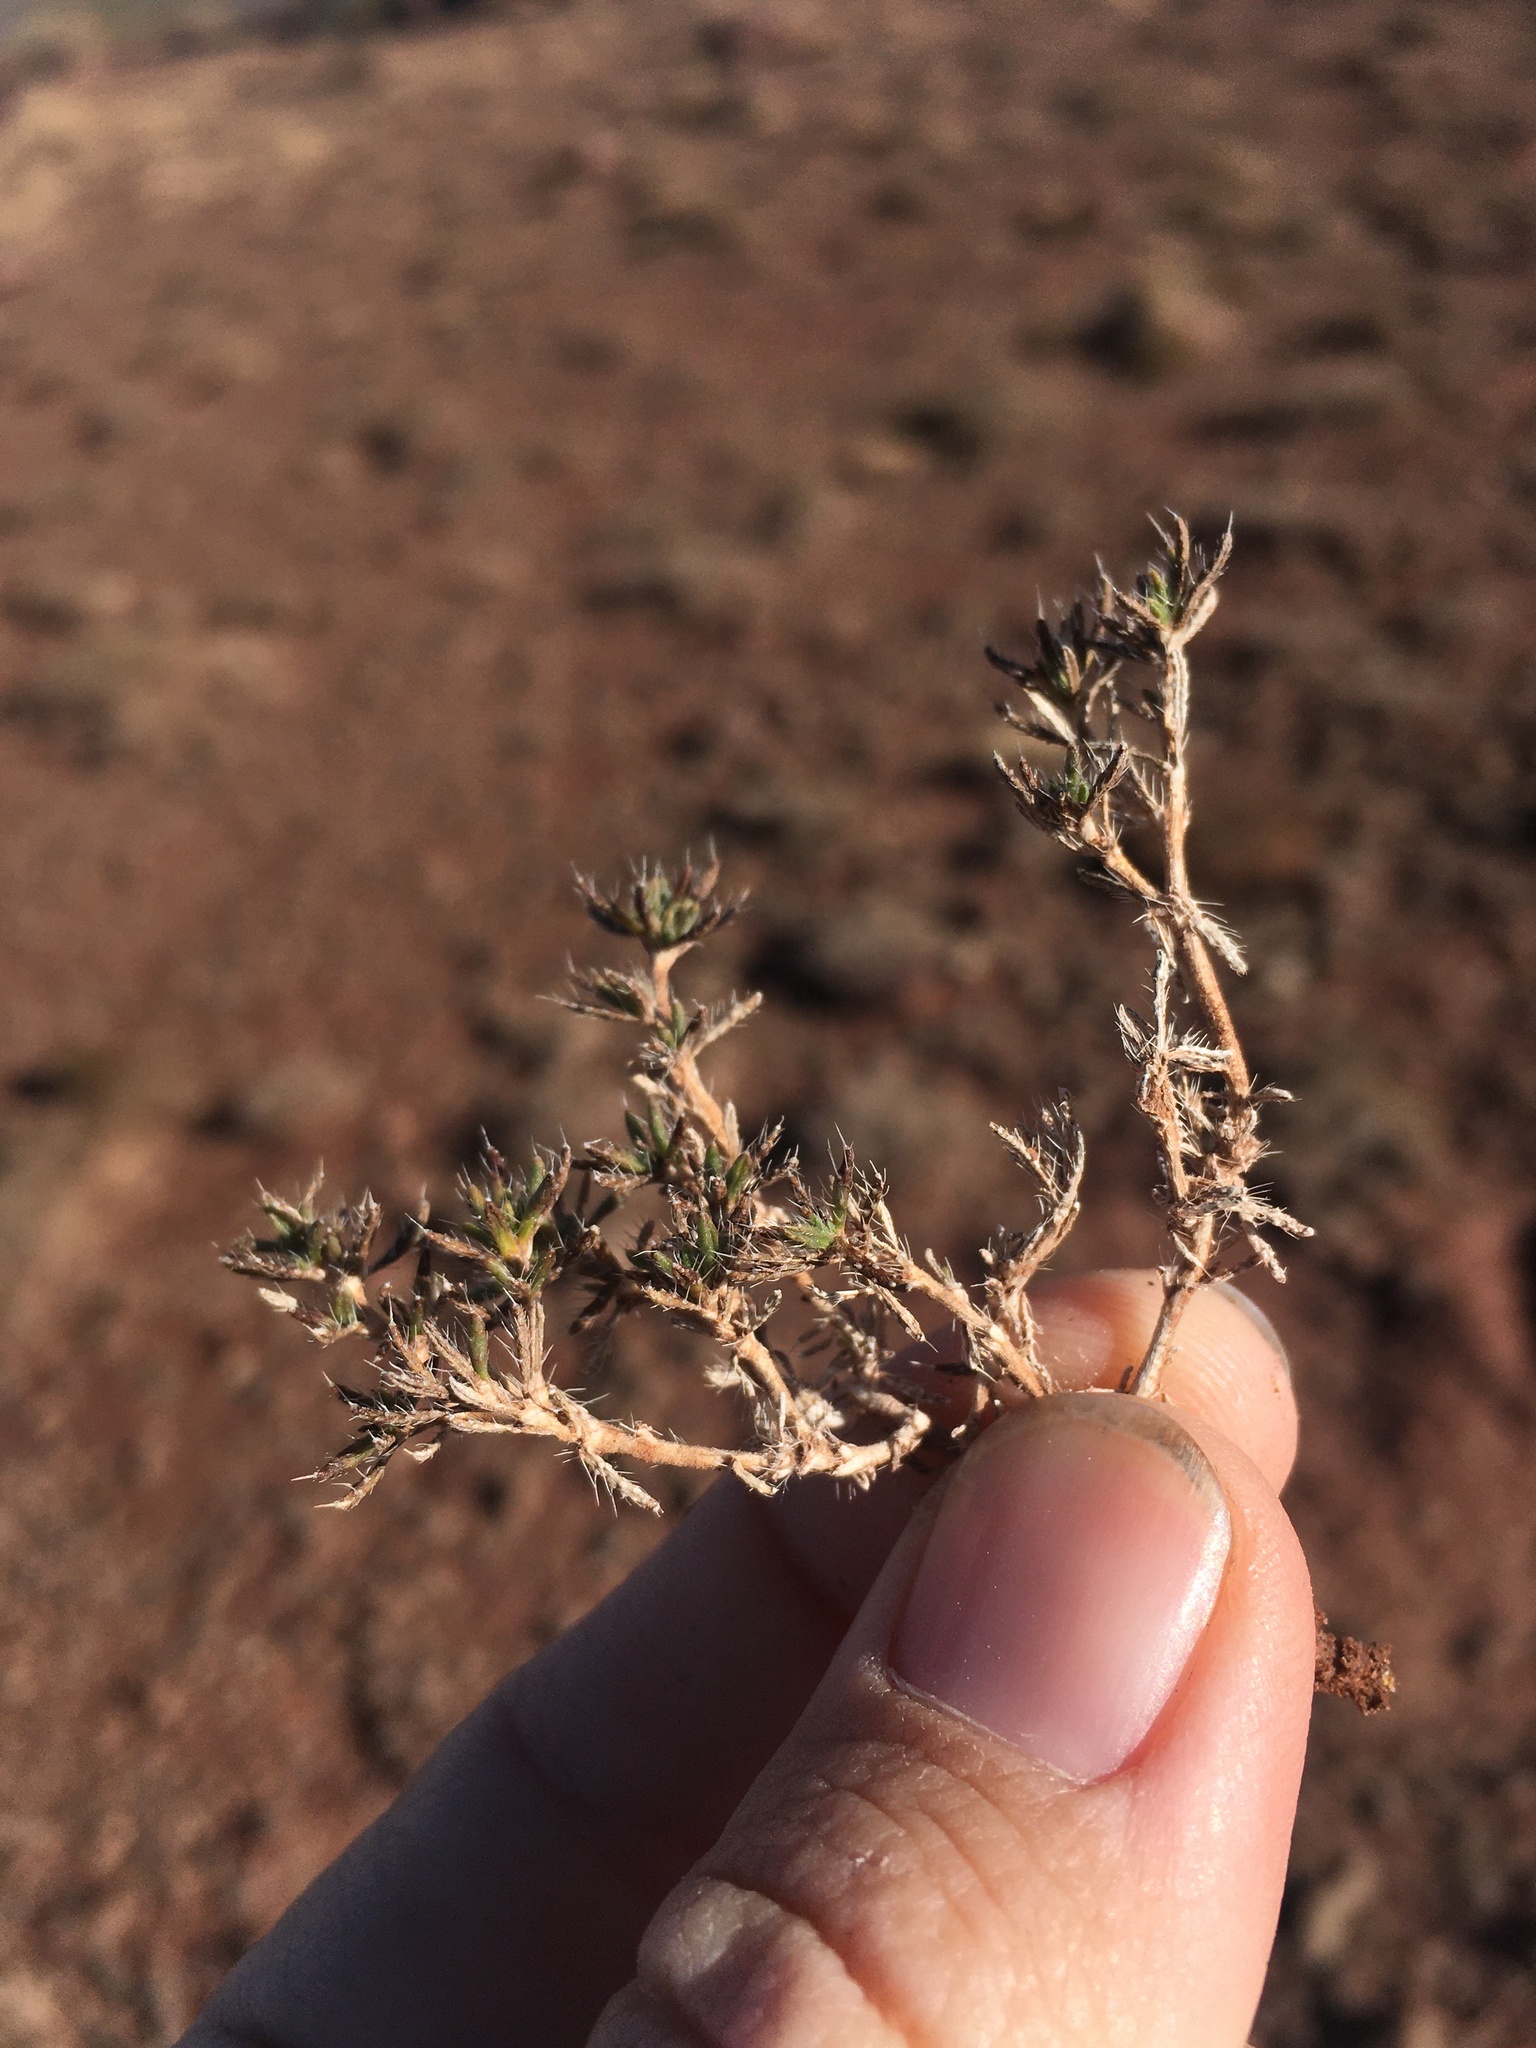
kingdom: Plantae
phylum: Tracheophyta
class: Magnoliopsida
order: Boraginales
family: Ehretiaceae
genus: Tiquilia
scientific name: Tiquilia hispidissima
